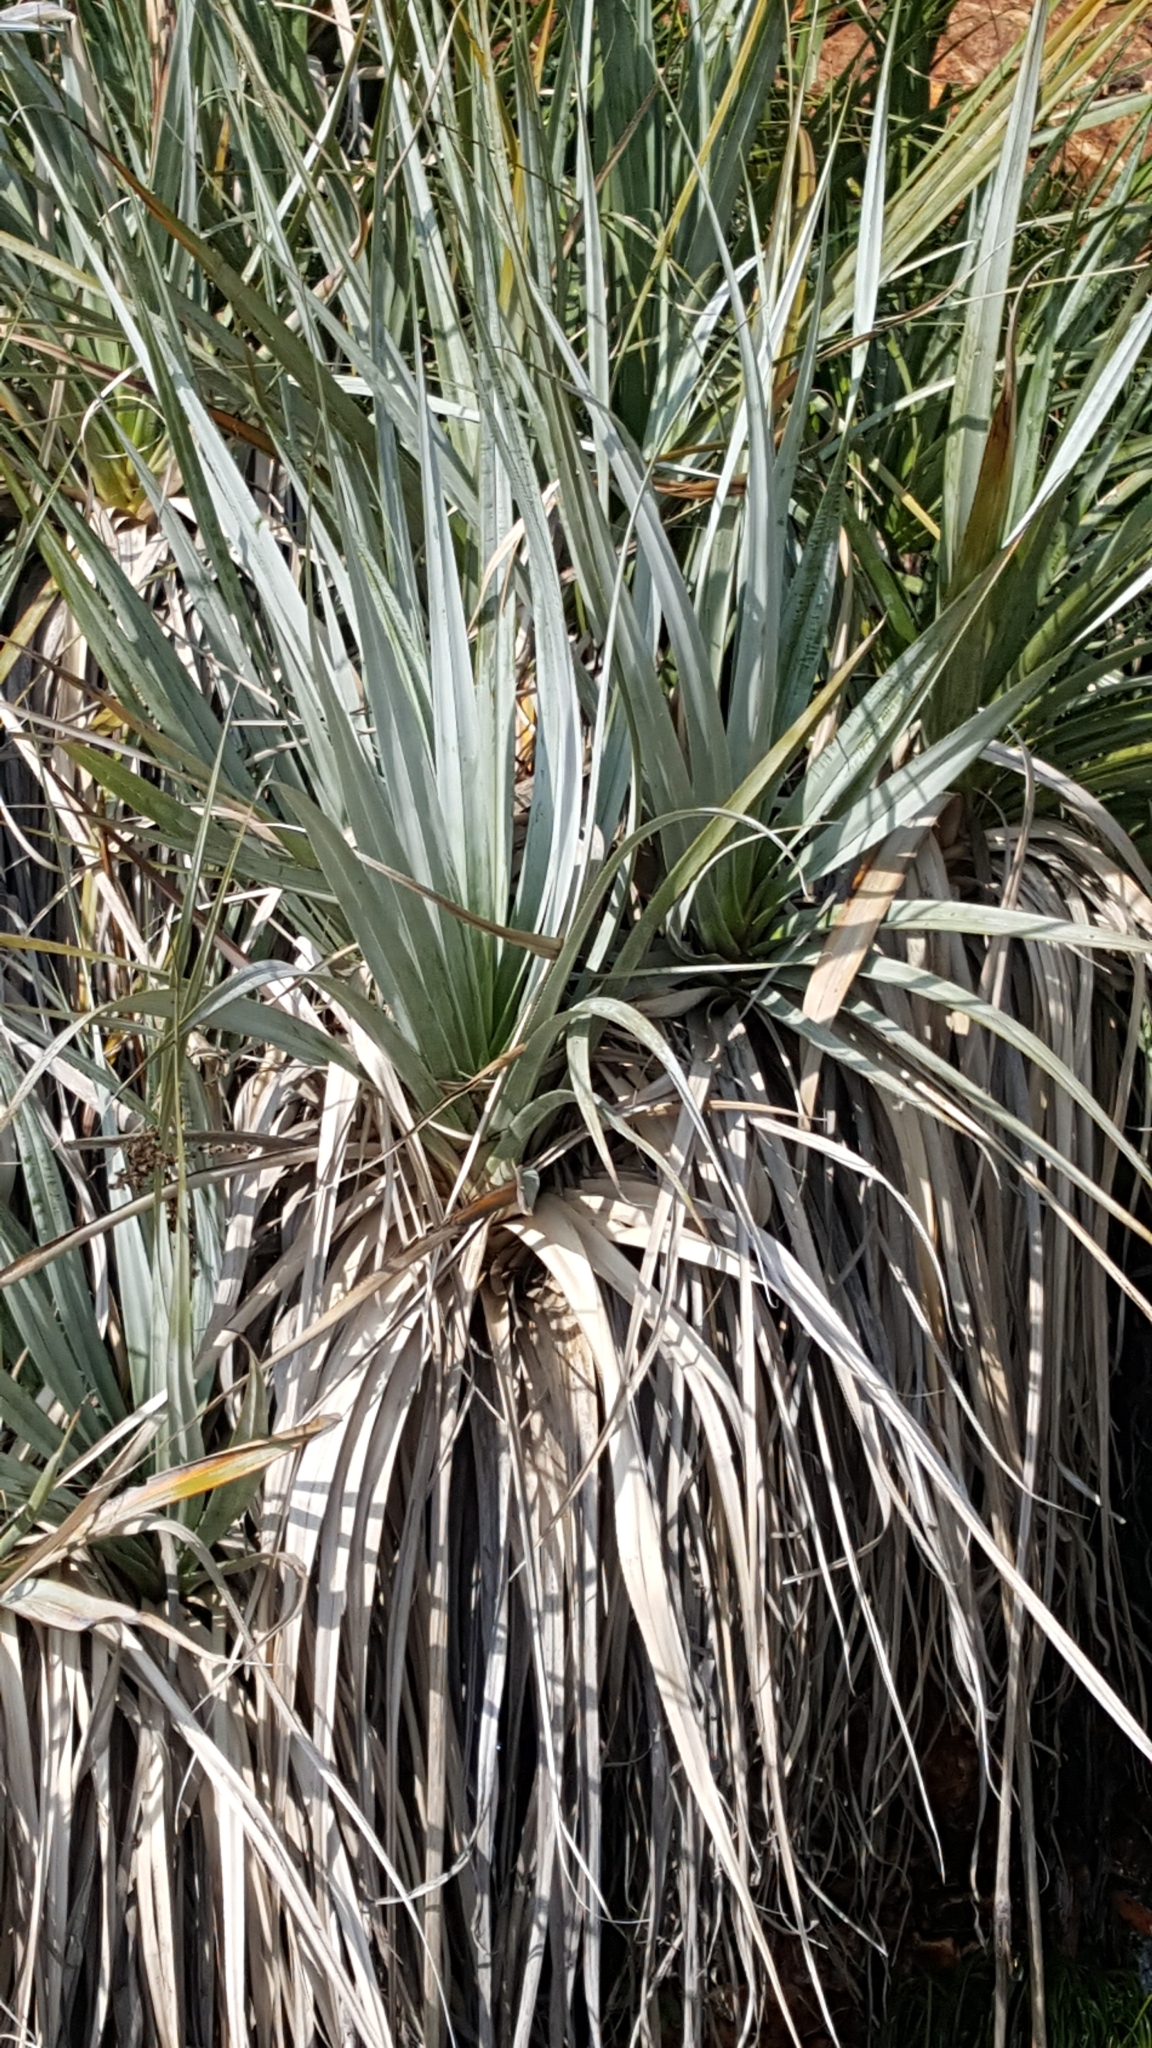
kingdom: Plantae
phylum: Tracheophyta
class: Liliopsida
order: Poales
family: Thurniaceae
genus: Prionium
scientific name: Prionium serratum
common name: Palmiet
